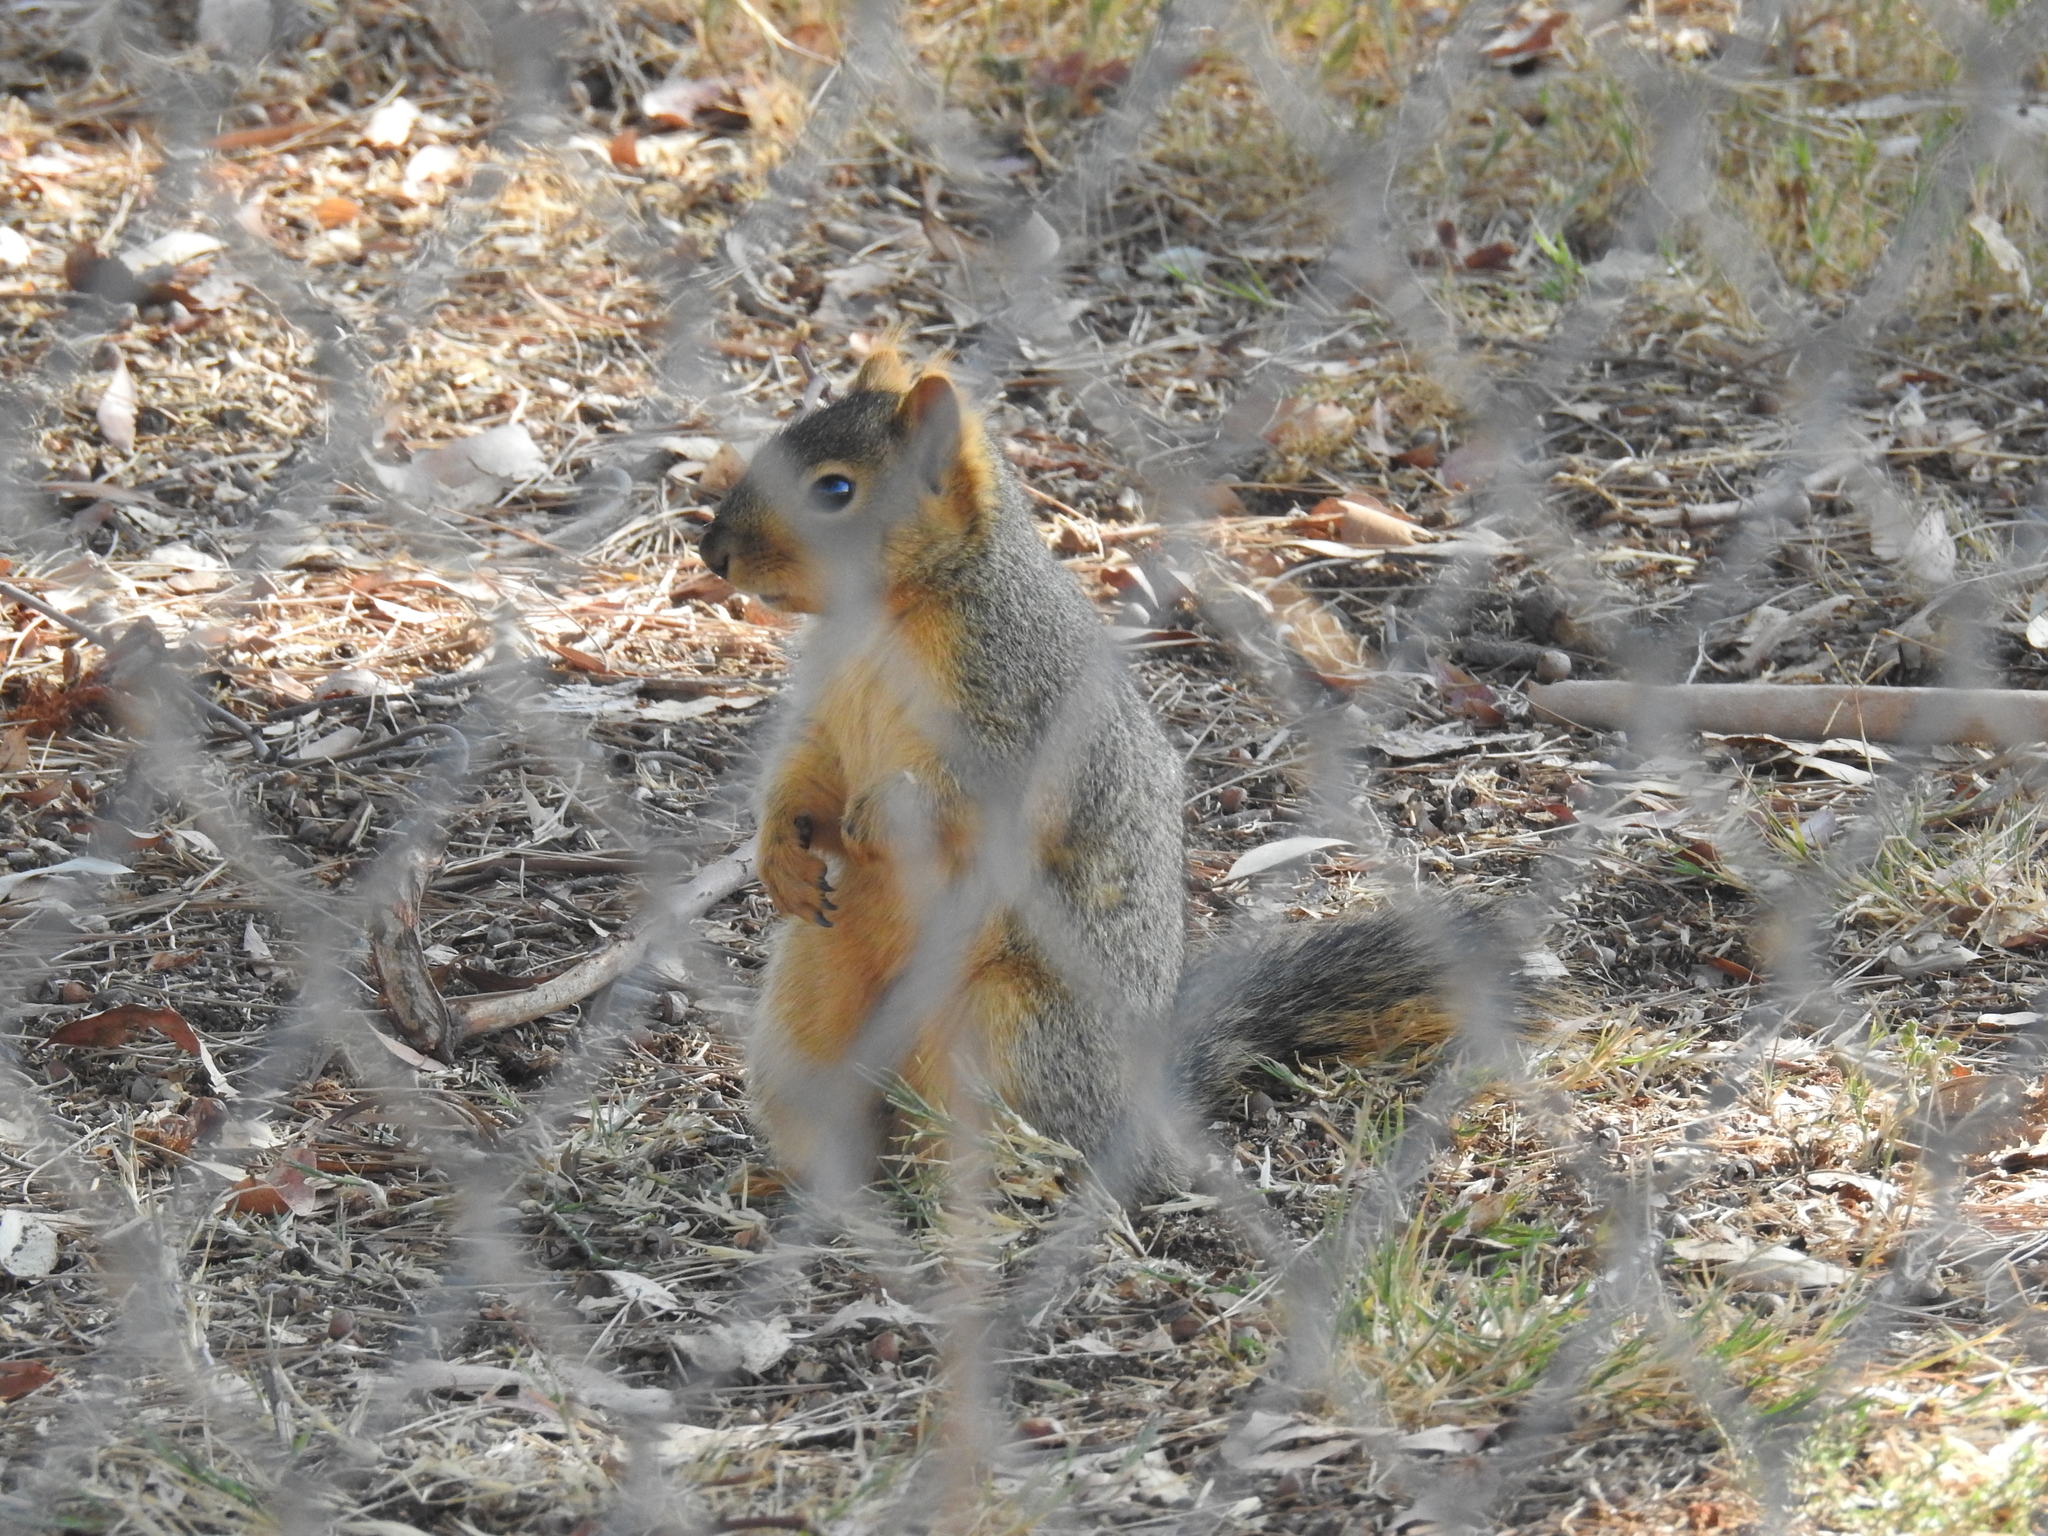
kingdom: Animalia
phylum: Chordata
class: Mammalia
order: Rodentia
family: Sciuridae
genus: Sciurus
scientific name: Sciurus niger
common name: Fox squirrel
